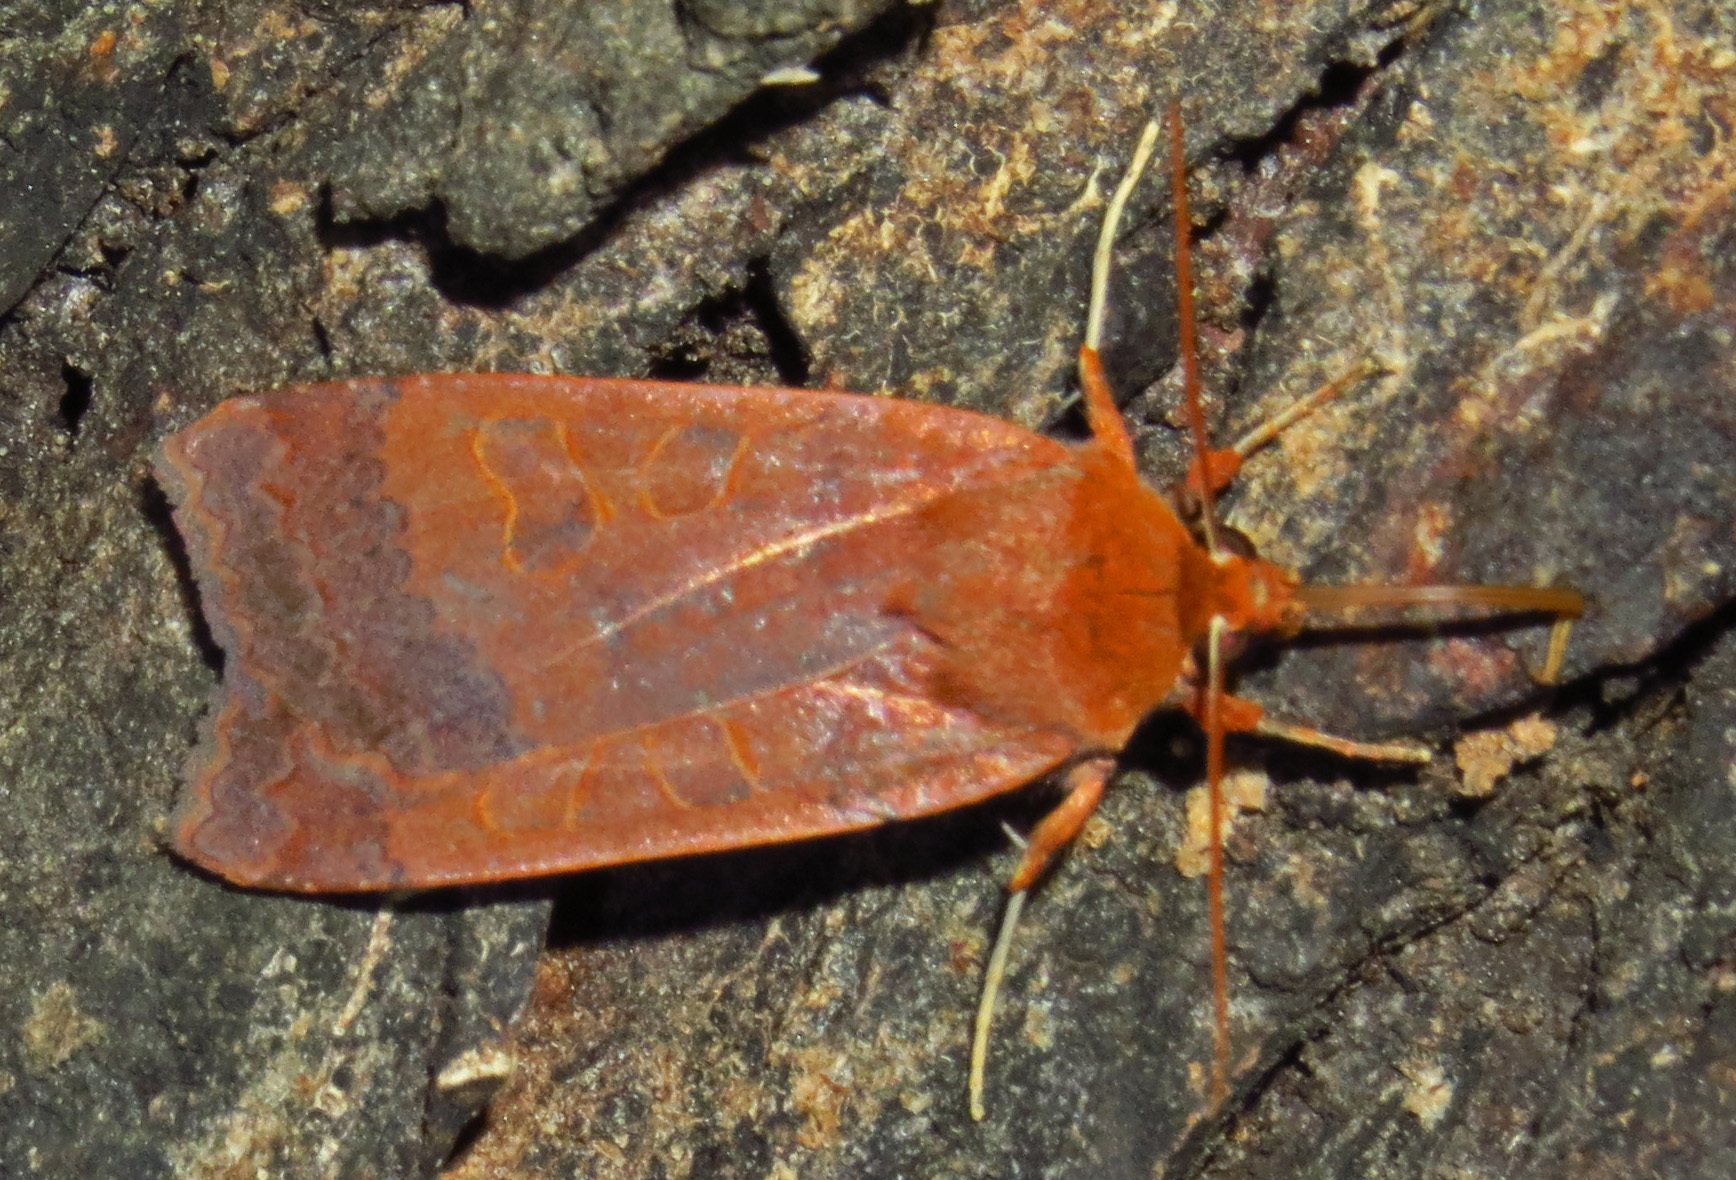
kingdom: Animalia
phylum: Arthropoda
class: Insecta
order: Lepidoptera
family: Noctuidae
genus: Metaxaglaea
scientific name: Metaxaglaea viatica
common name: Roadside sallow
